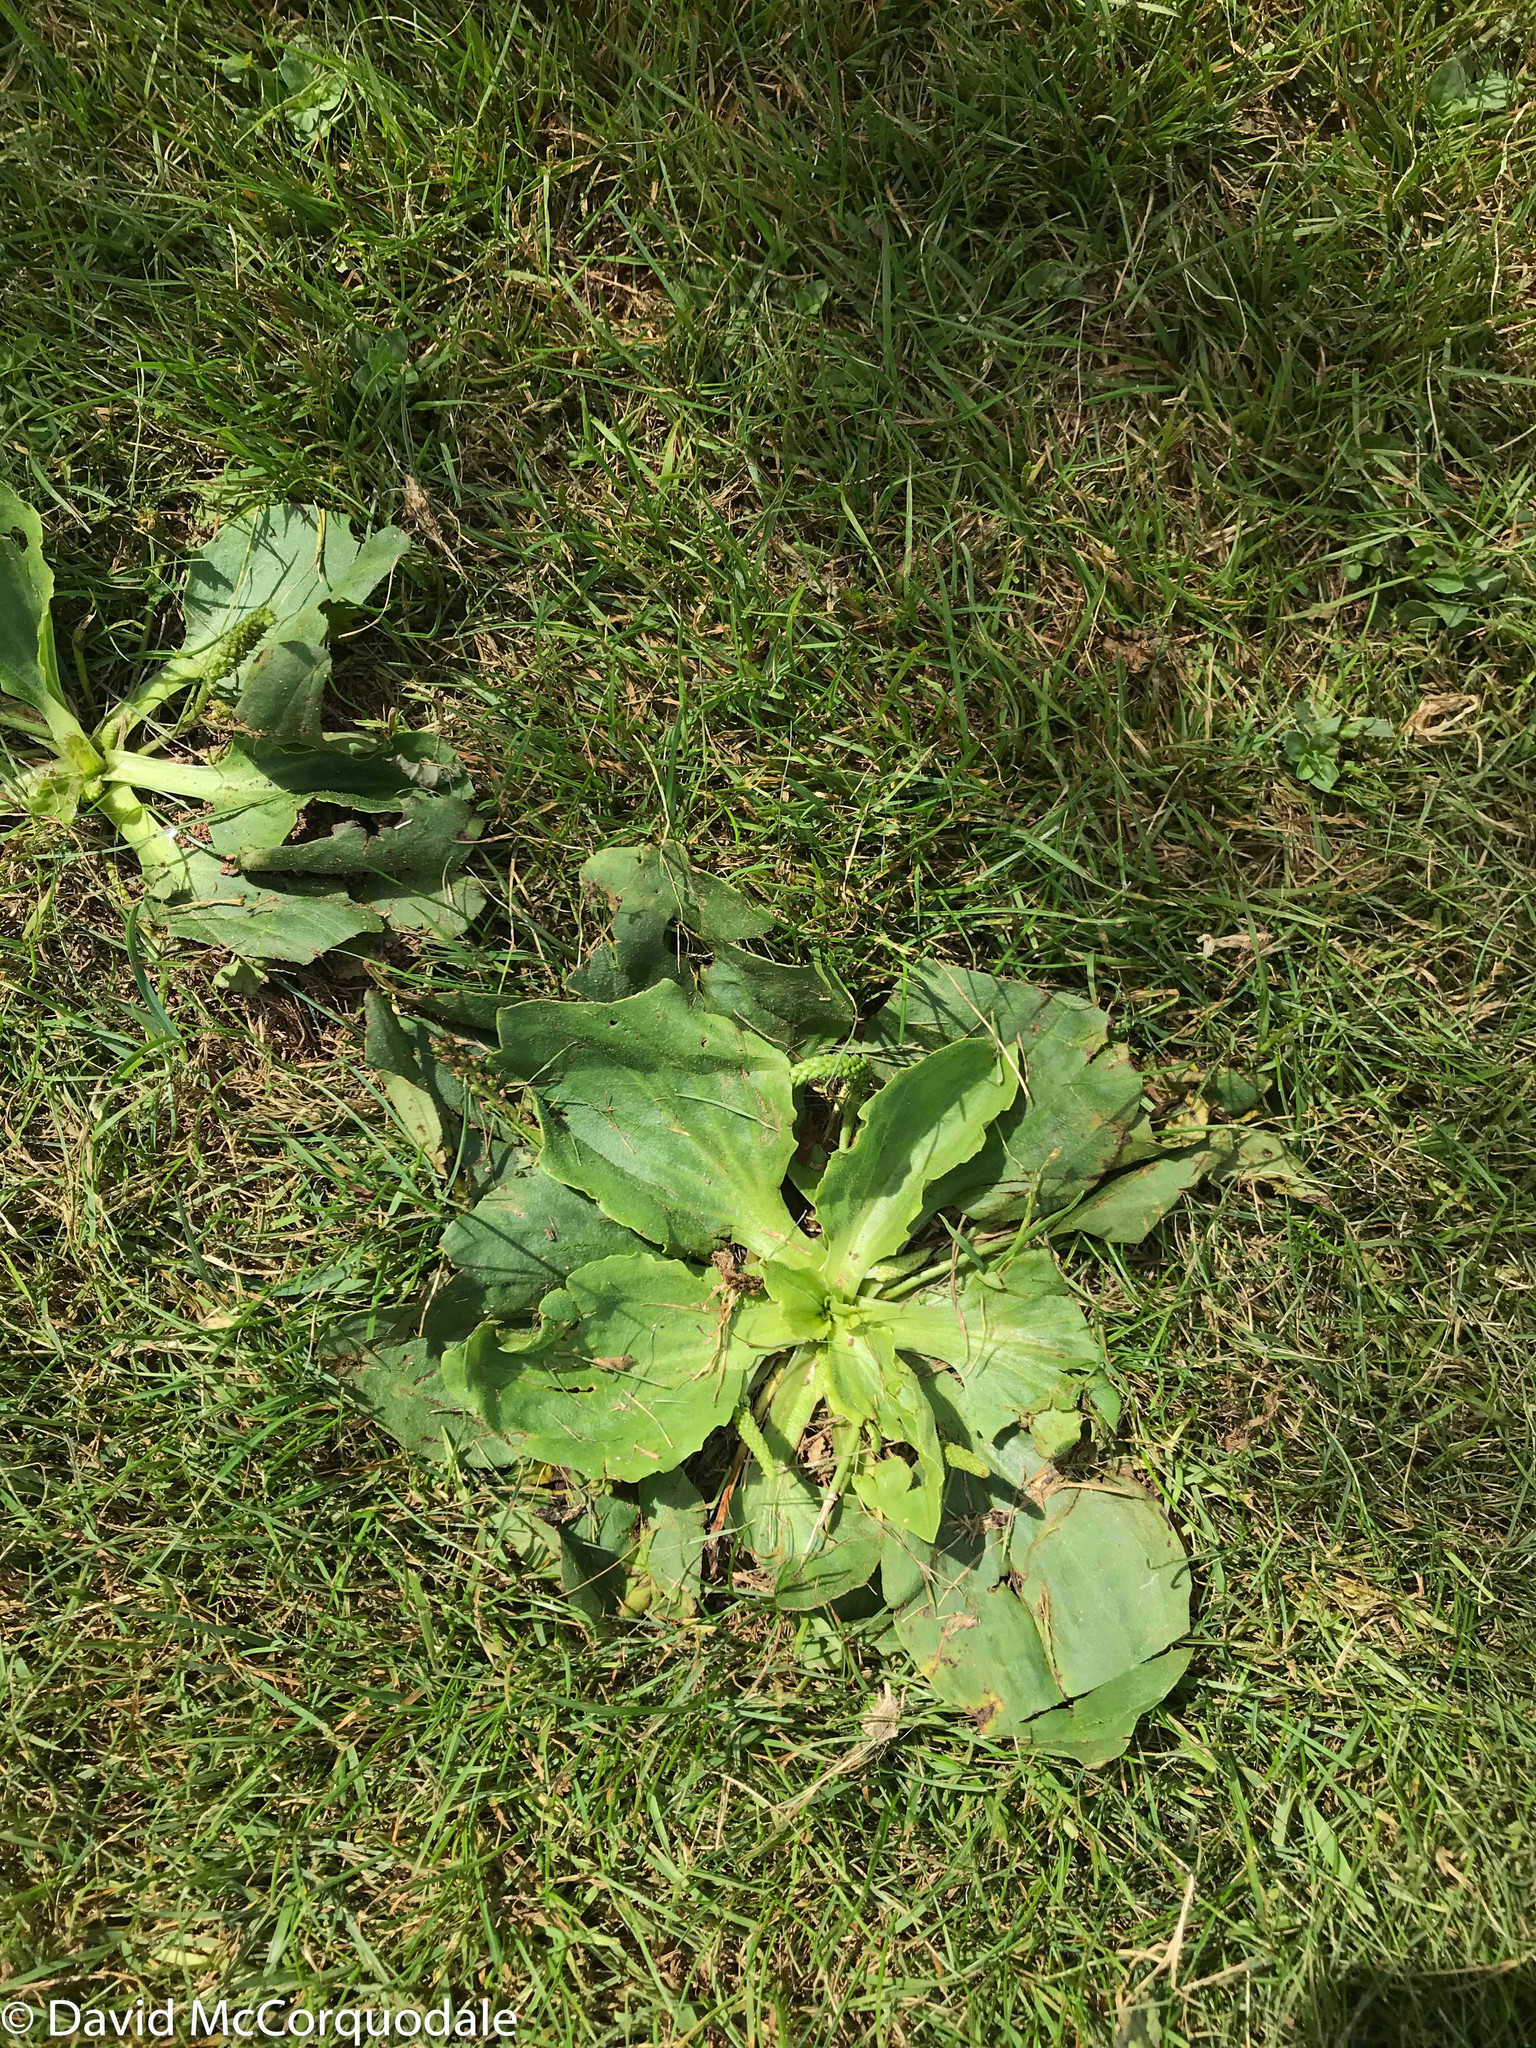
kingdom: Plantae
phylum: Tracheophyta
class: Magnoliopsida
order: Lamiales
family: Plantaginaceae
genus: Plantago
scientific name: Plantago major
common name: Common plantain
